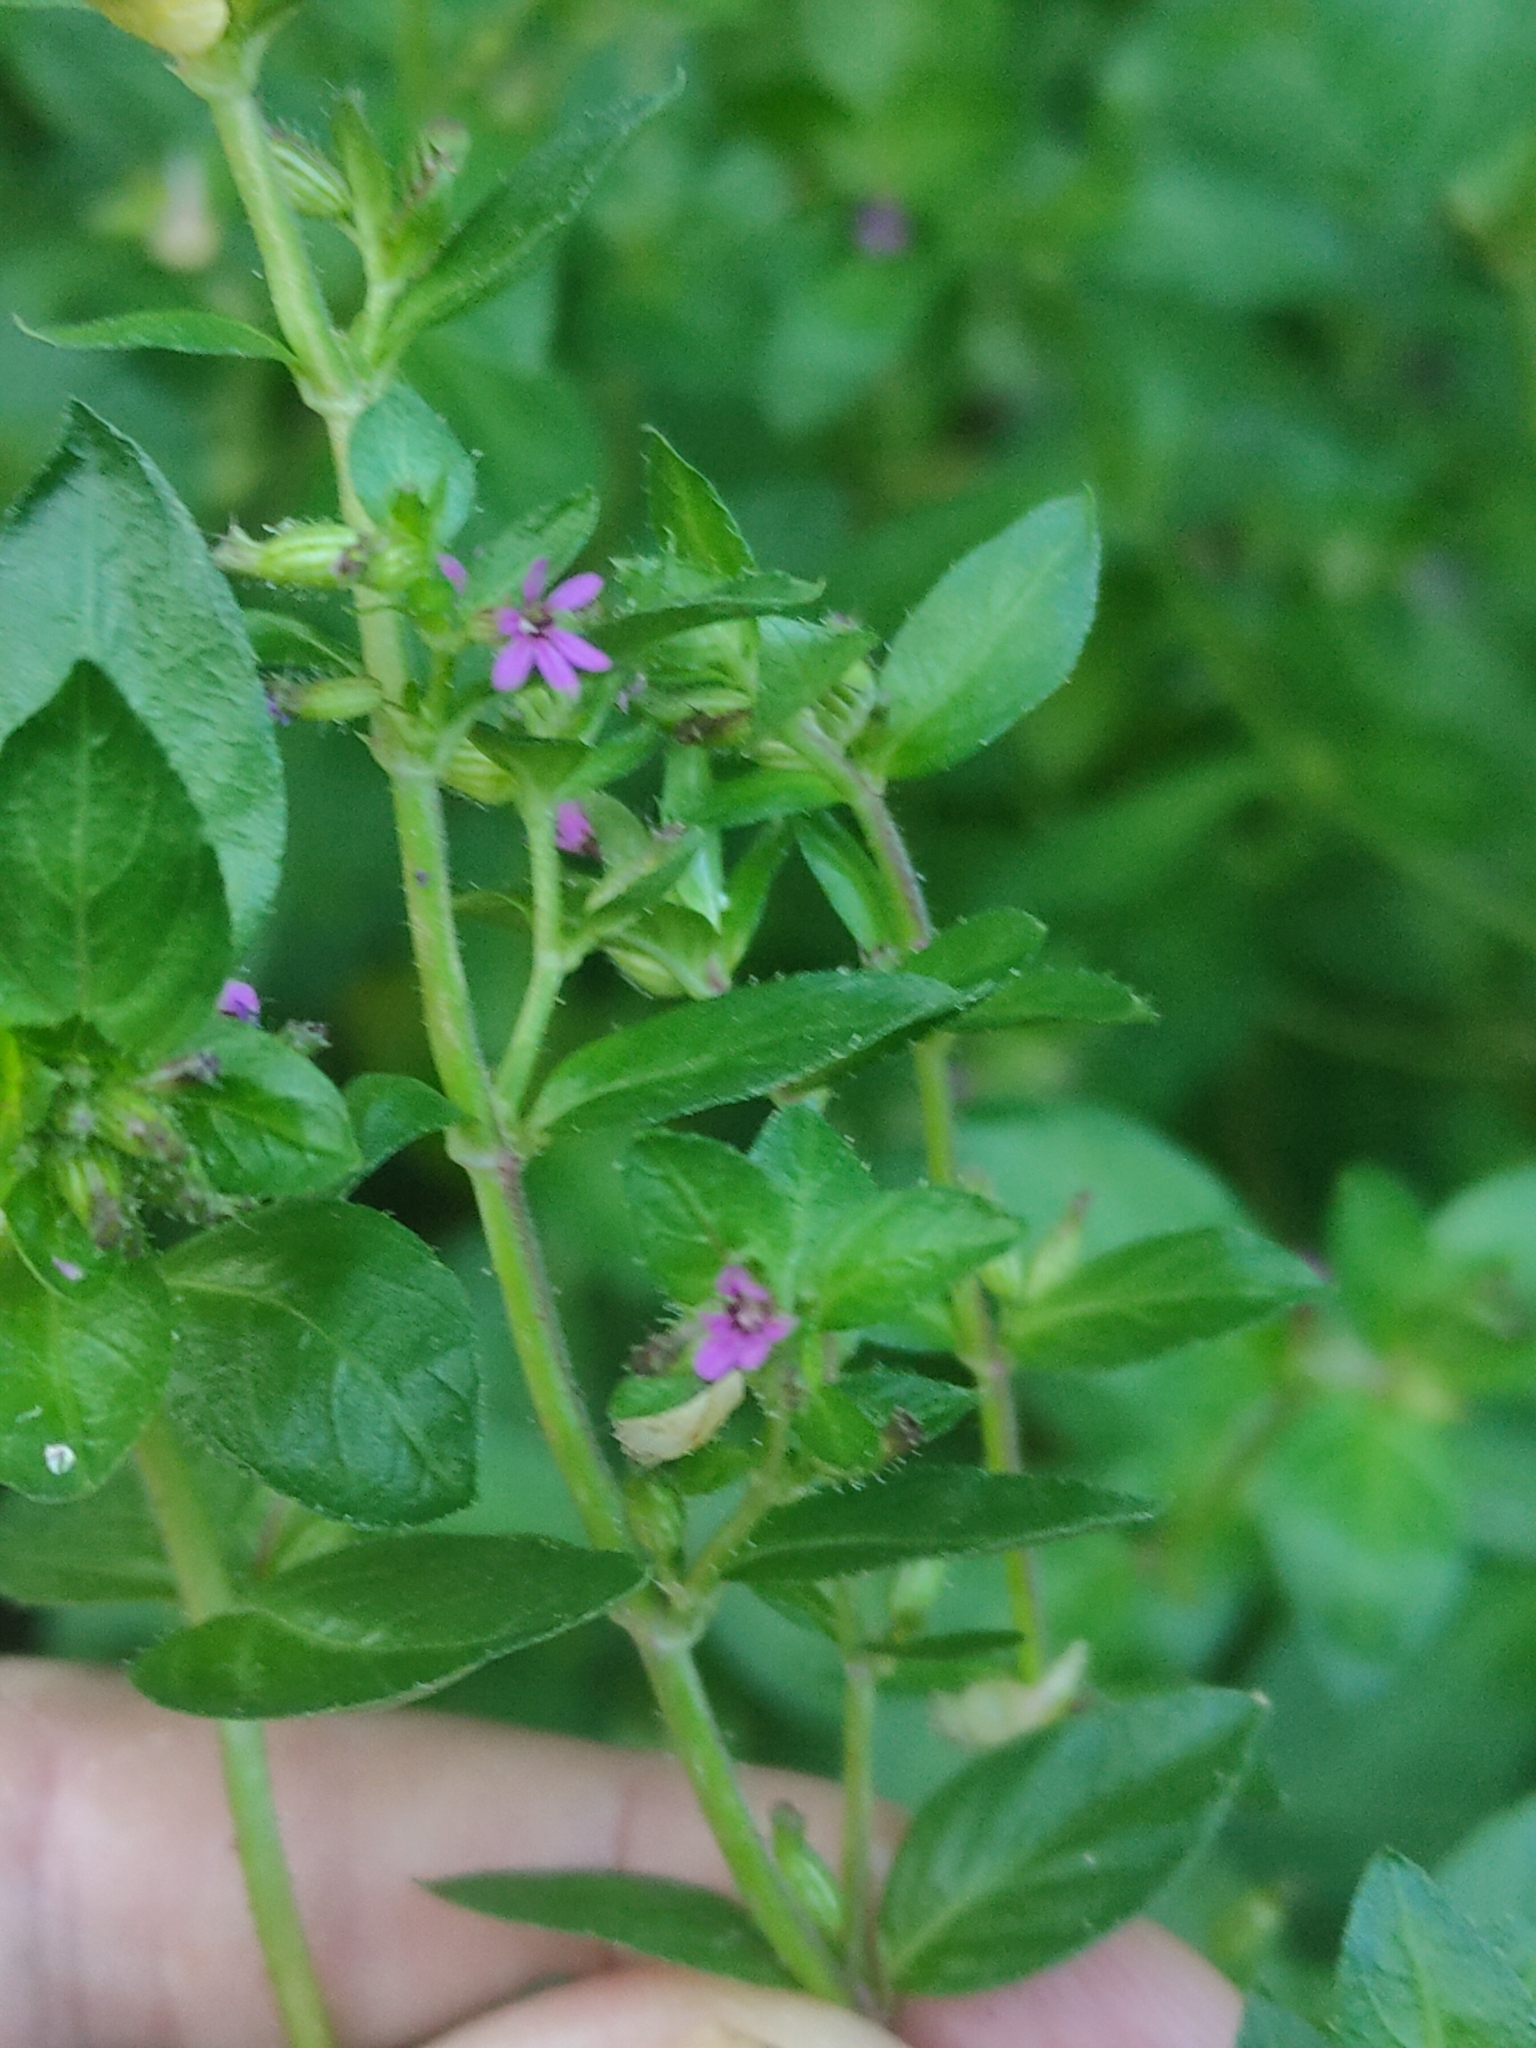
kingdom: Plantae
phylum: Tracheophyta
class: Magnoliopsida
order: Myrtales
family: Lythraceae
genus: Cuphea
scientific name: Cuphea carthagenensis
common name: Colombian waxweed
